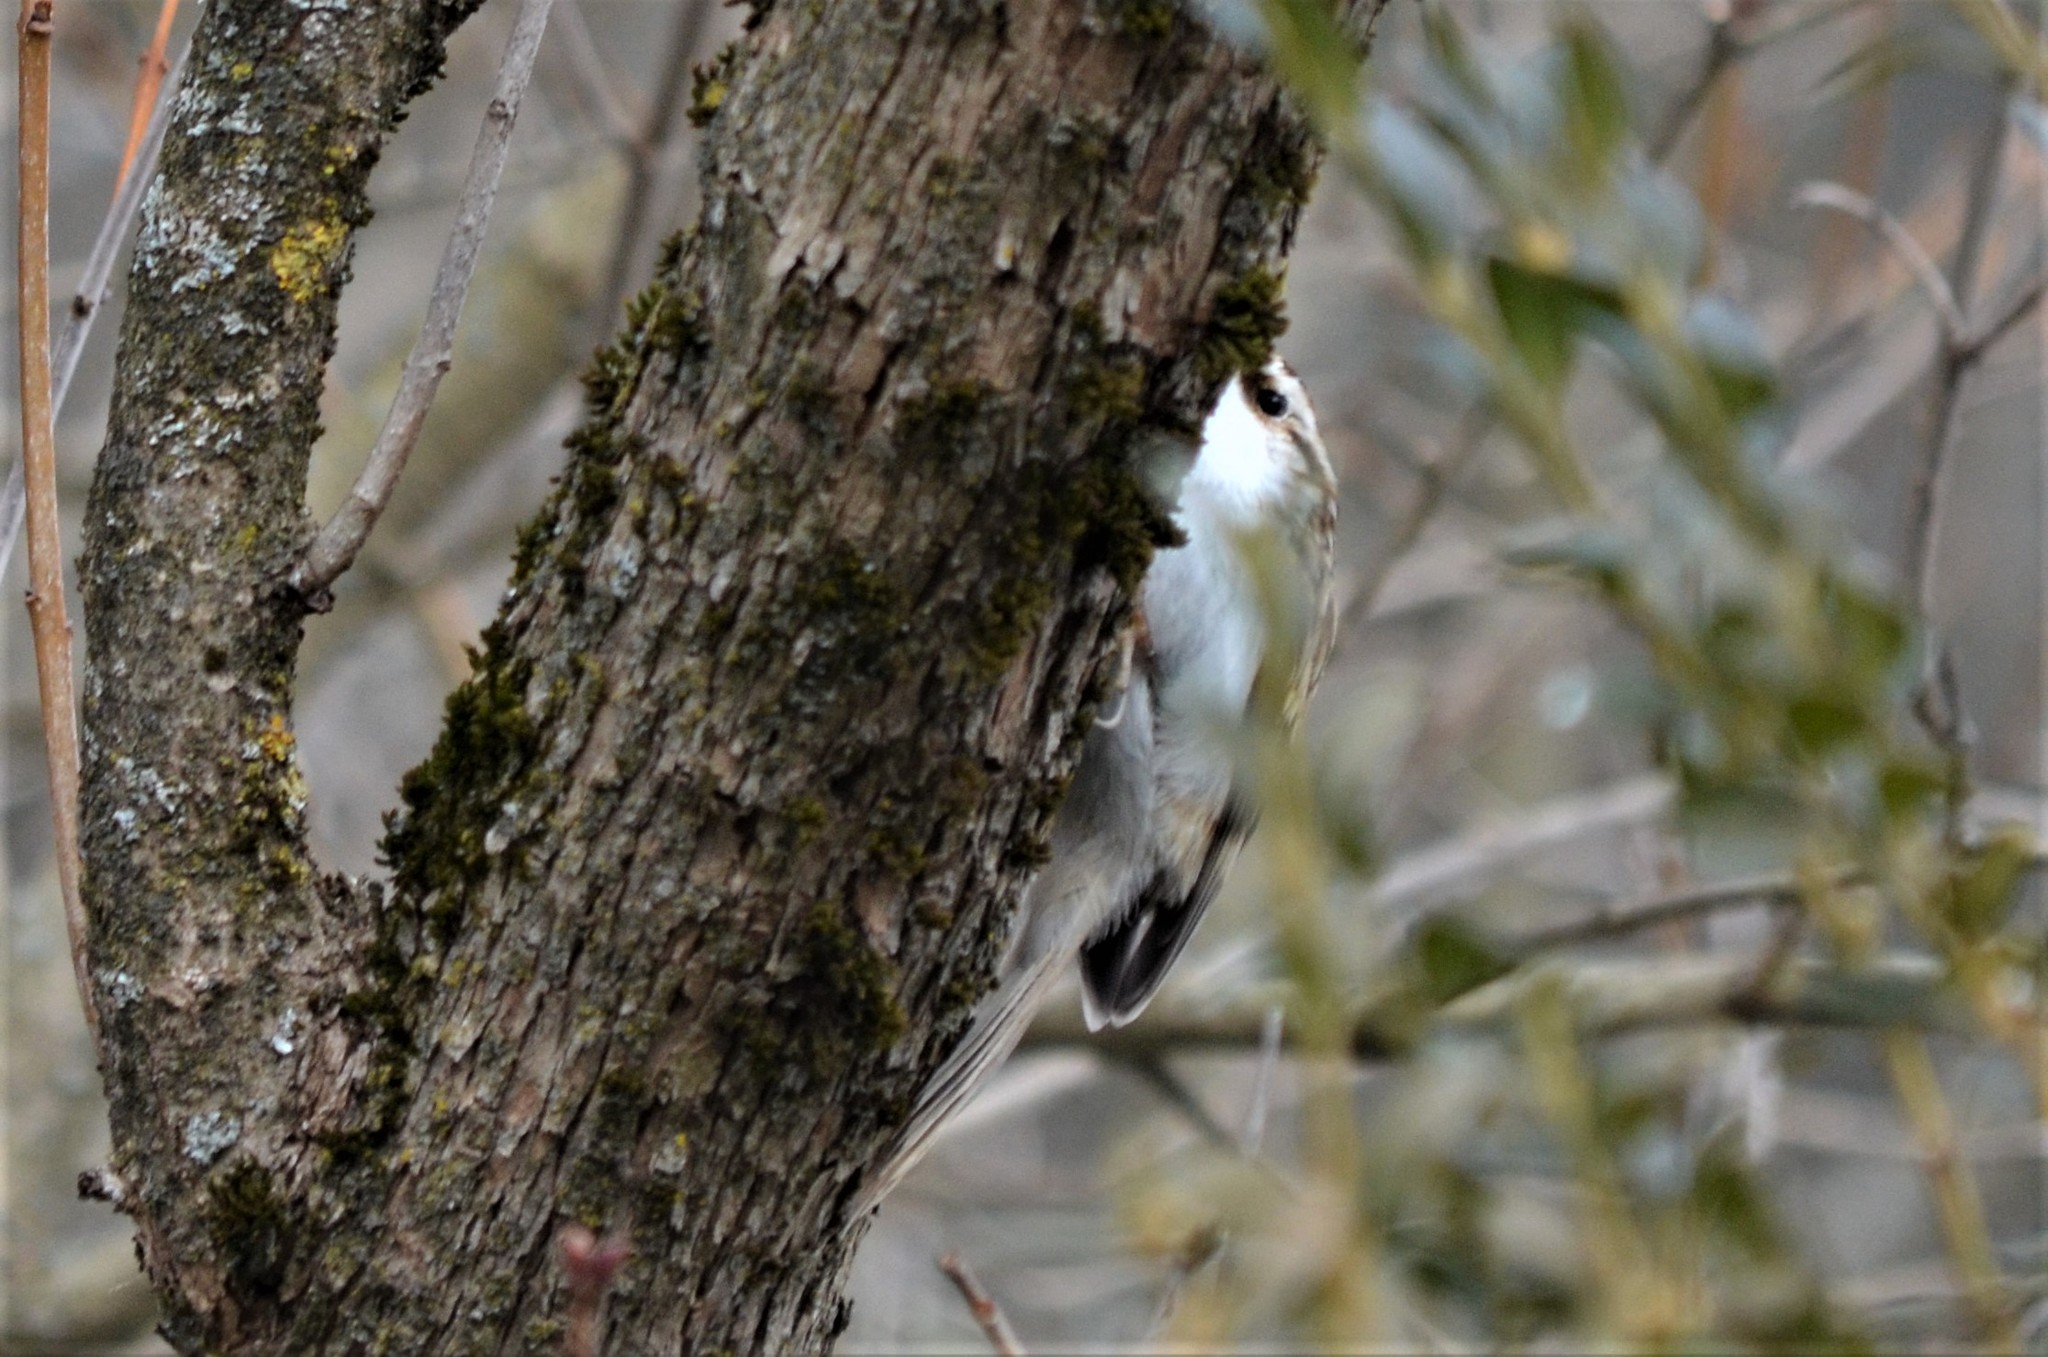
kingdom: Animalia
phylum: Chordata
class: Aves
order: Passeriformes
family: Certhiidae
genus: Certhia
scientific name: Certhia familiaris
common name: Eurasian treecreeper
